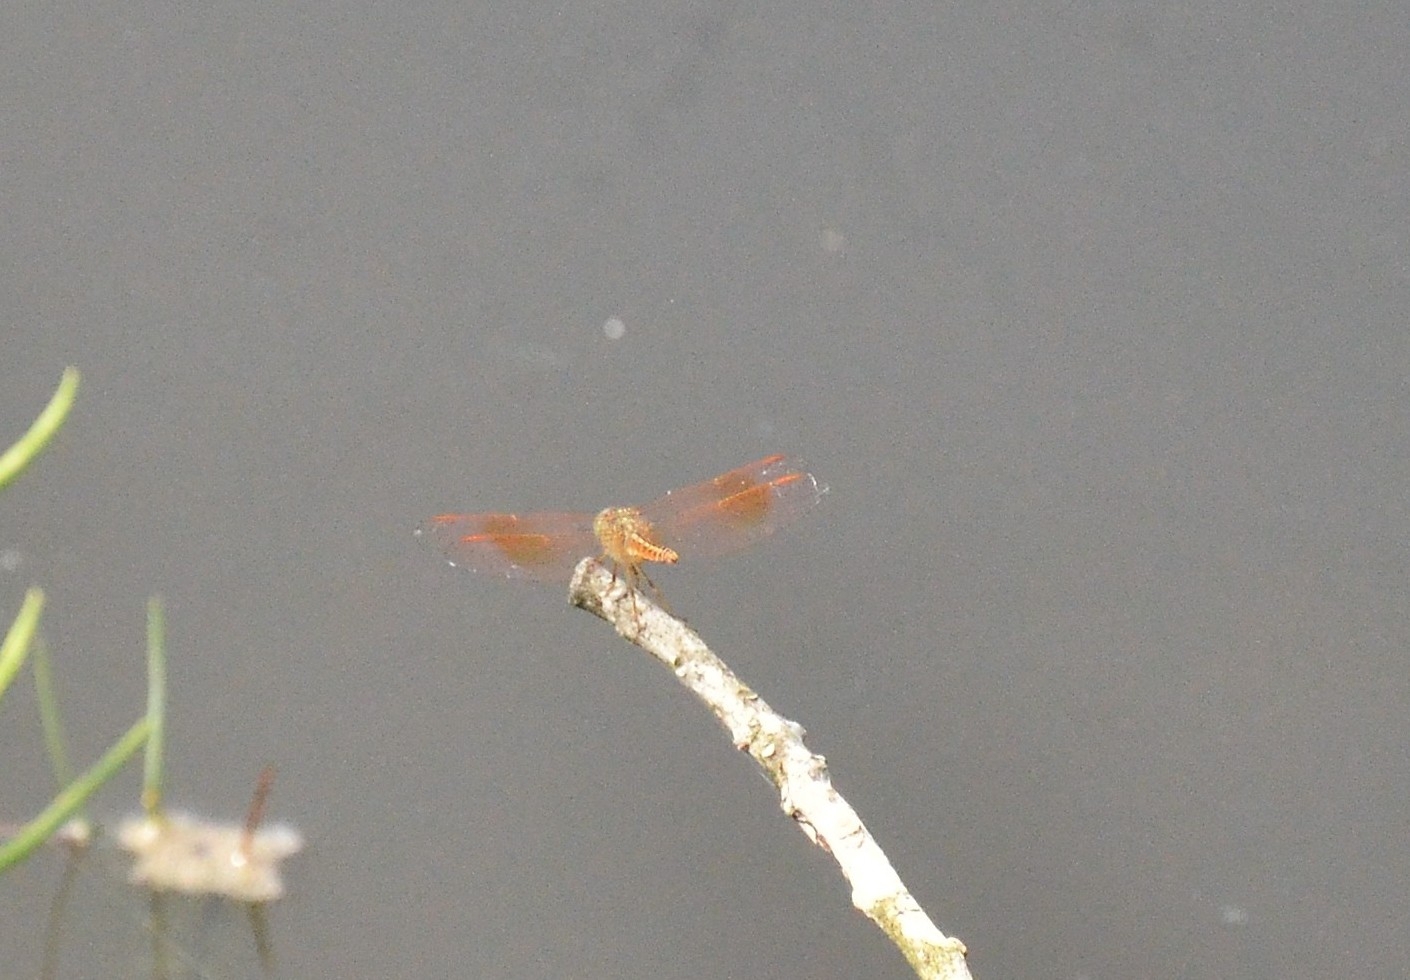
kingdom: Animalia
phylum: Arthropoda
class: Insecta
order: Odonata
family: Libellulidae
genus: Brachythemis
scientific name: Brachythemis contaminata
